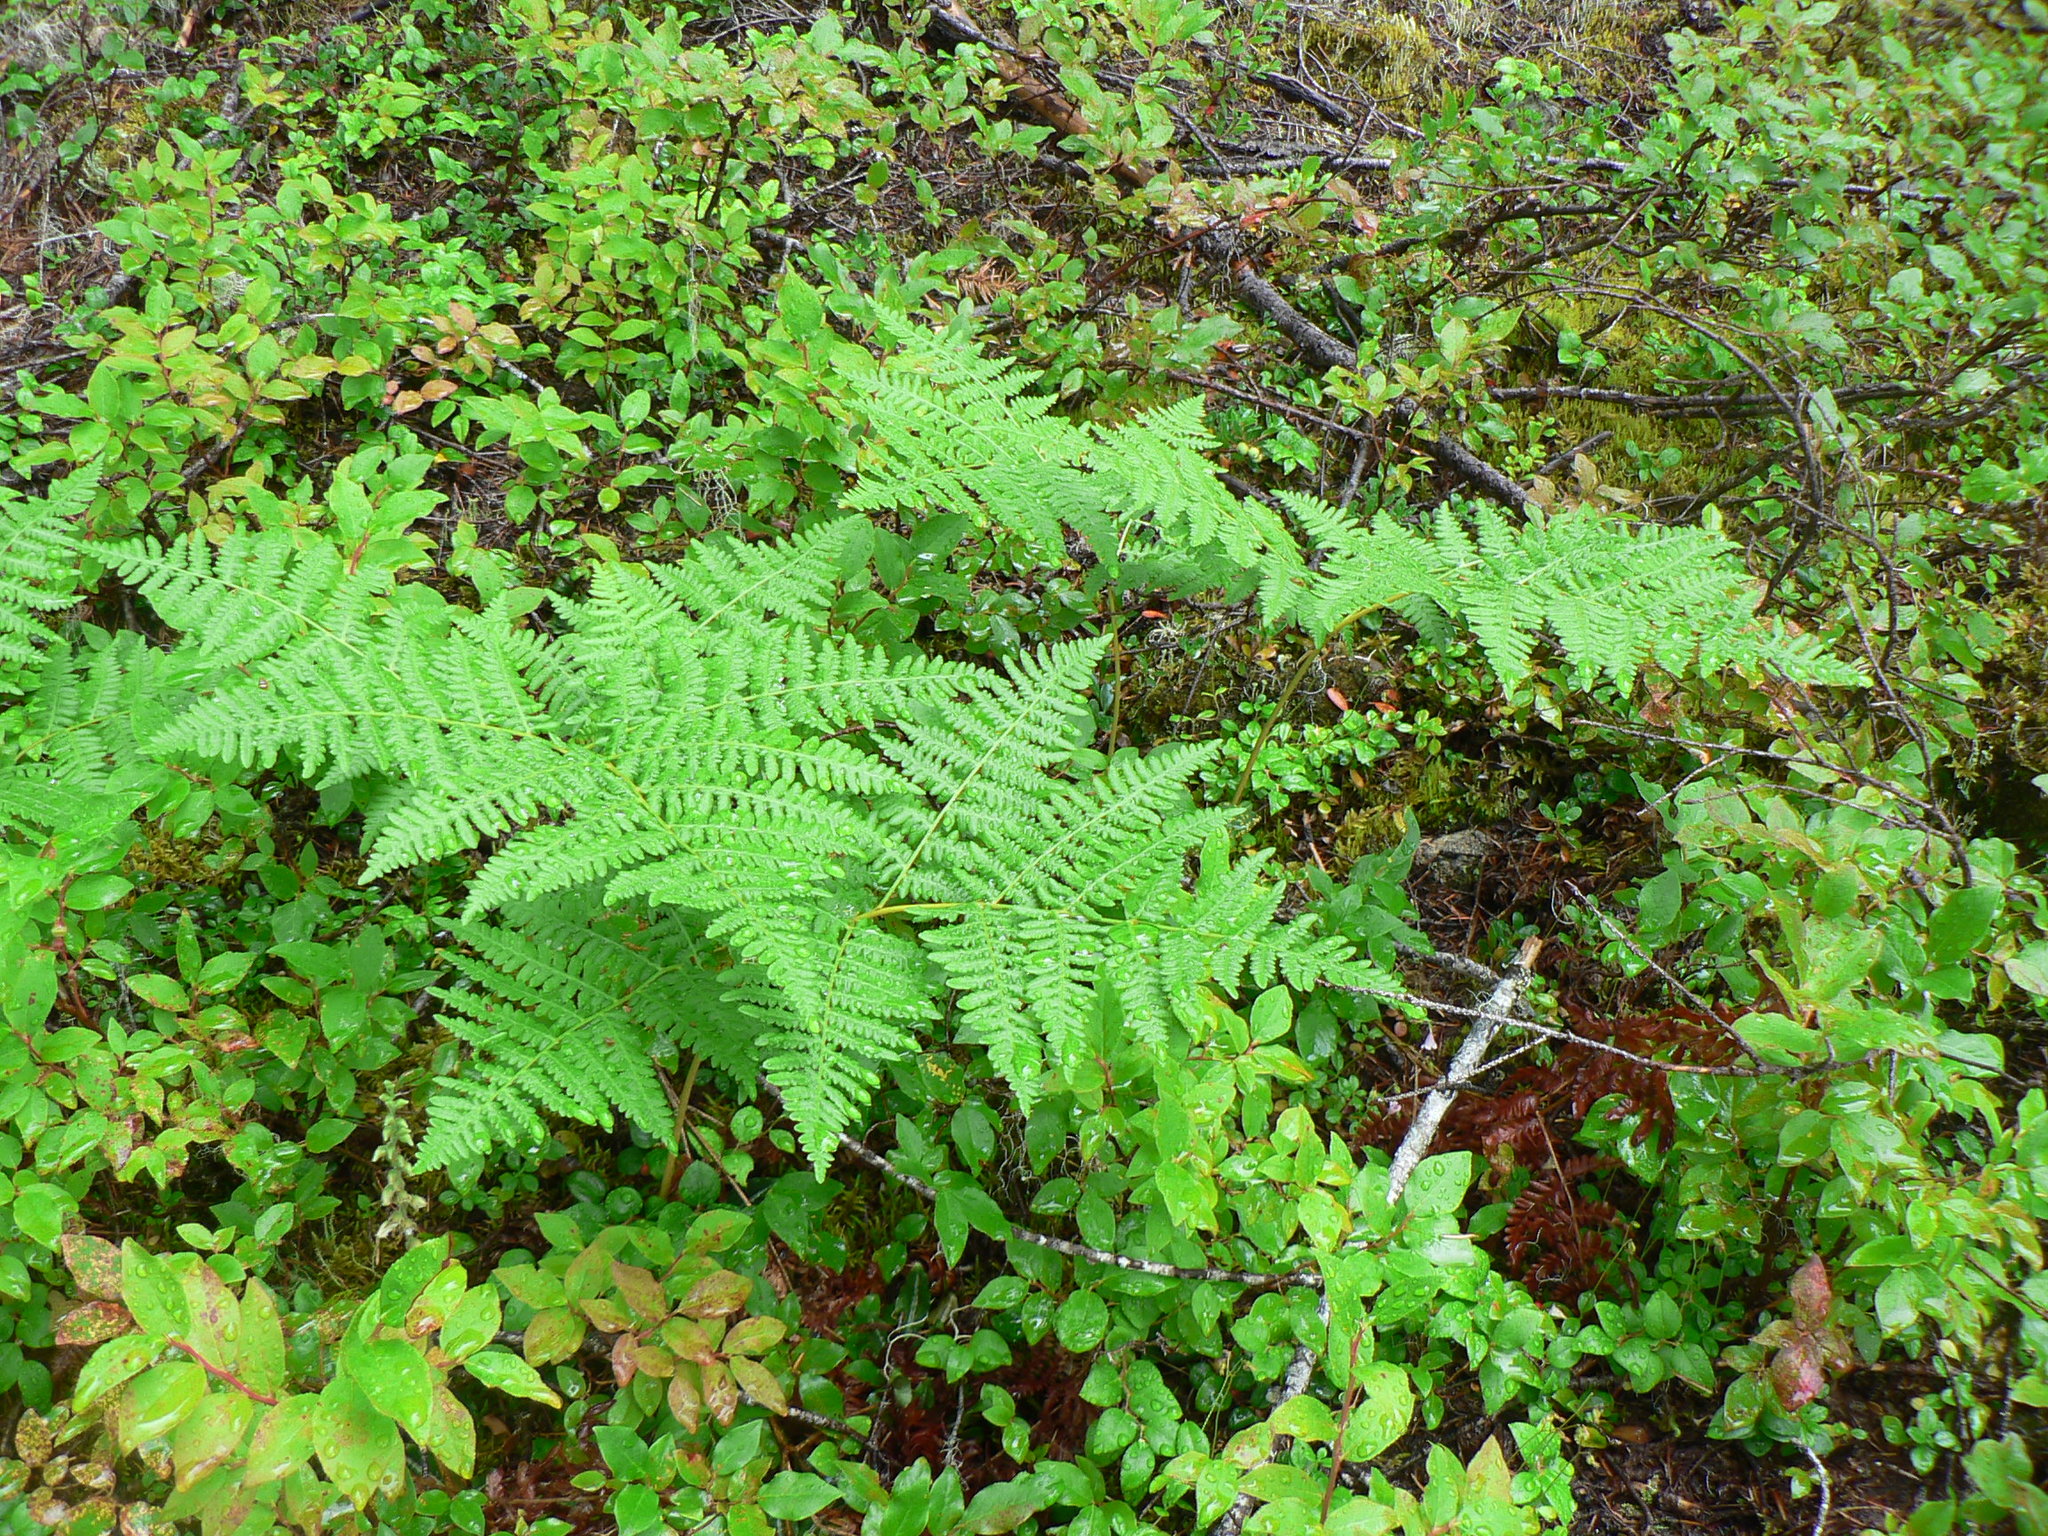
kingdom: Plantae
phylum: Tracheophyta
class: Polypodiopsida
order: Polypodiales
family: Dennstaedtiaceae
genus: Pteridium
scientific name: Pteridium aquilinum
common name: Bracken
